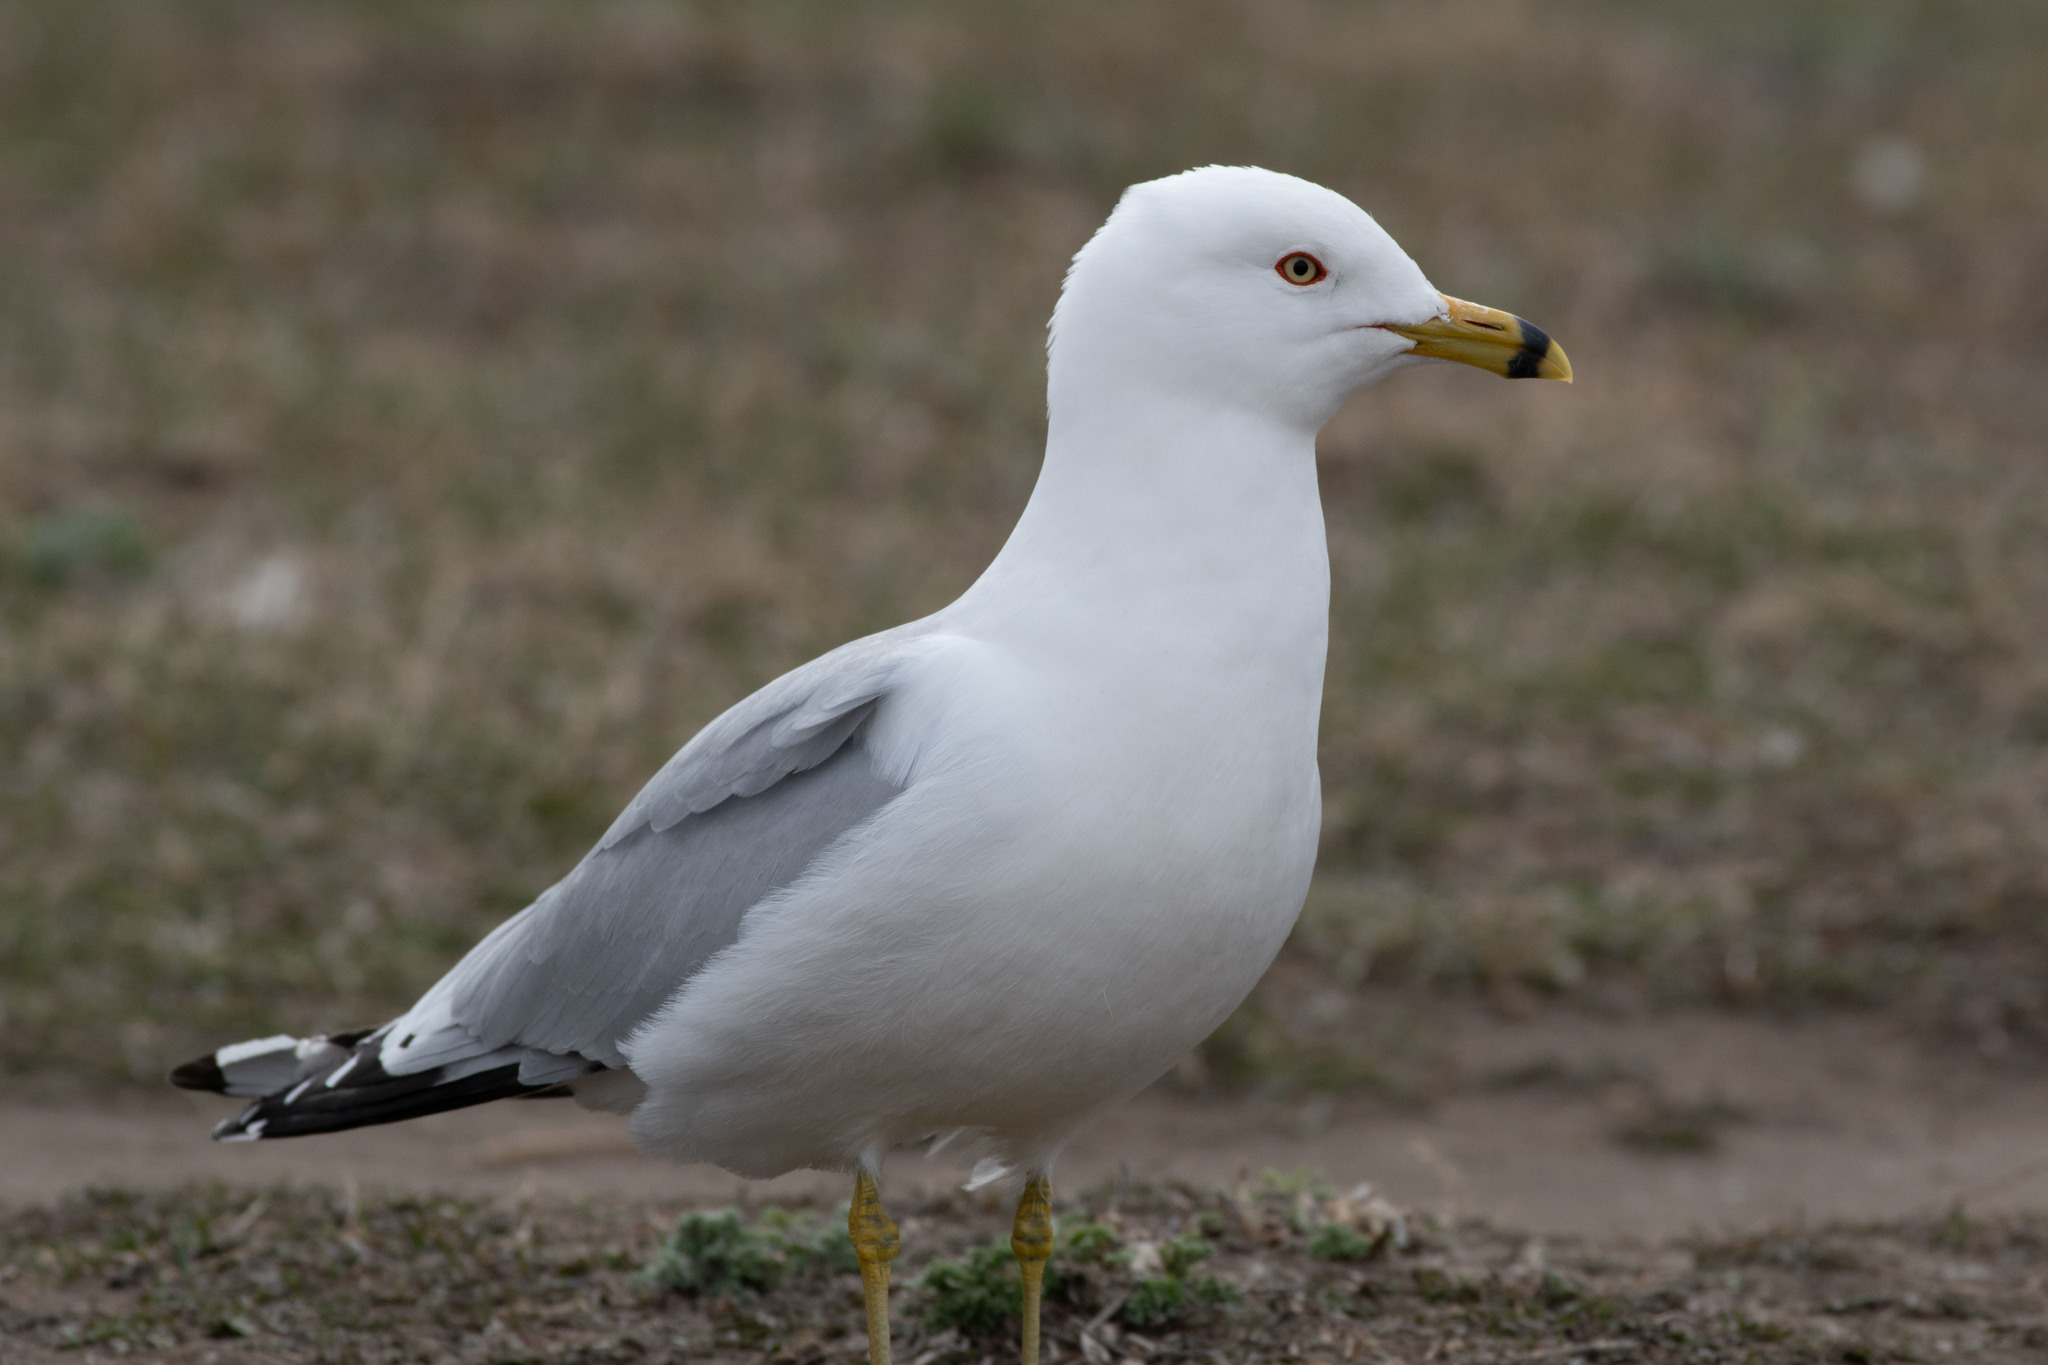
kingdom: Animalia
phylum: Chordata
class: Aves
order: Charadriiformes
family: Laridae
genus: Larus
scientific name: Larus delawarensis
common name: Ring-billed gull
